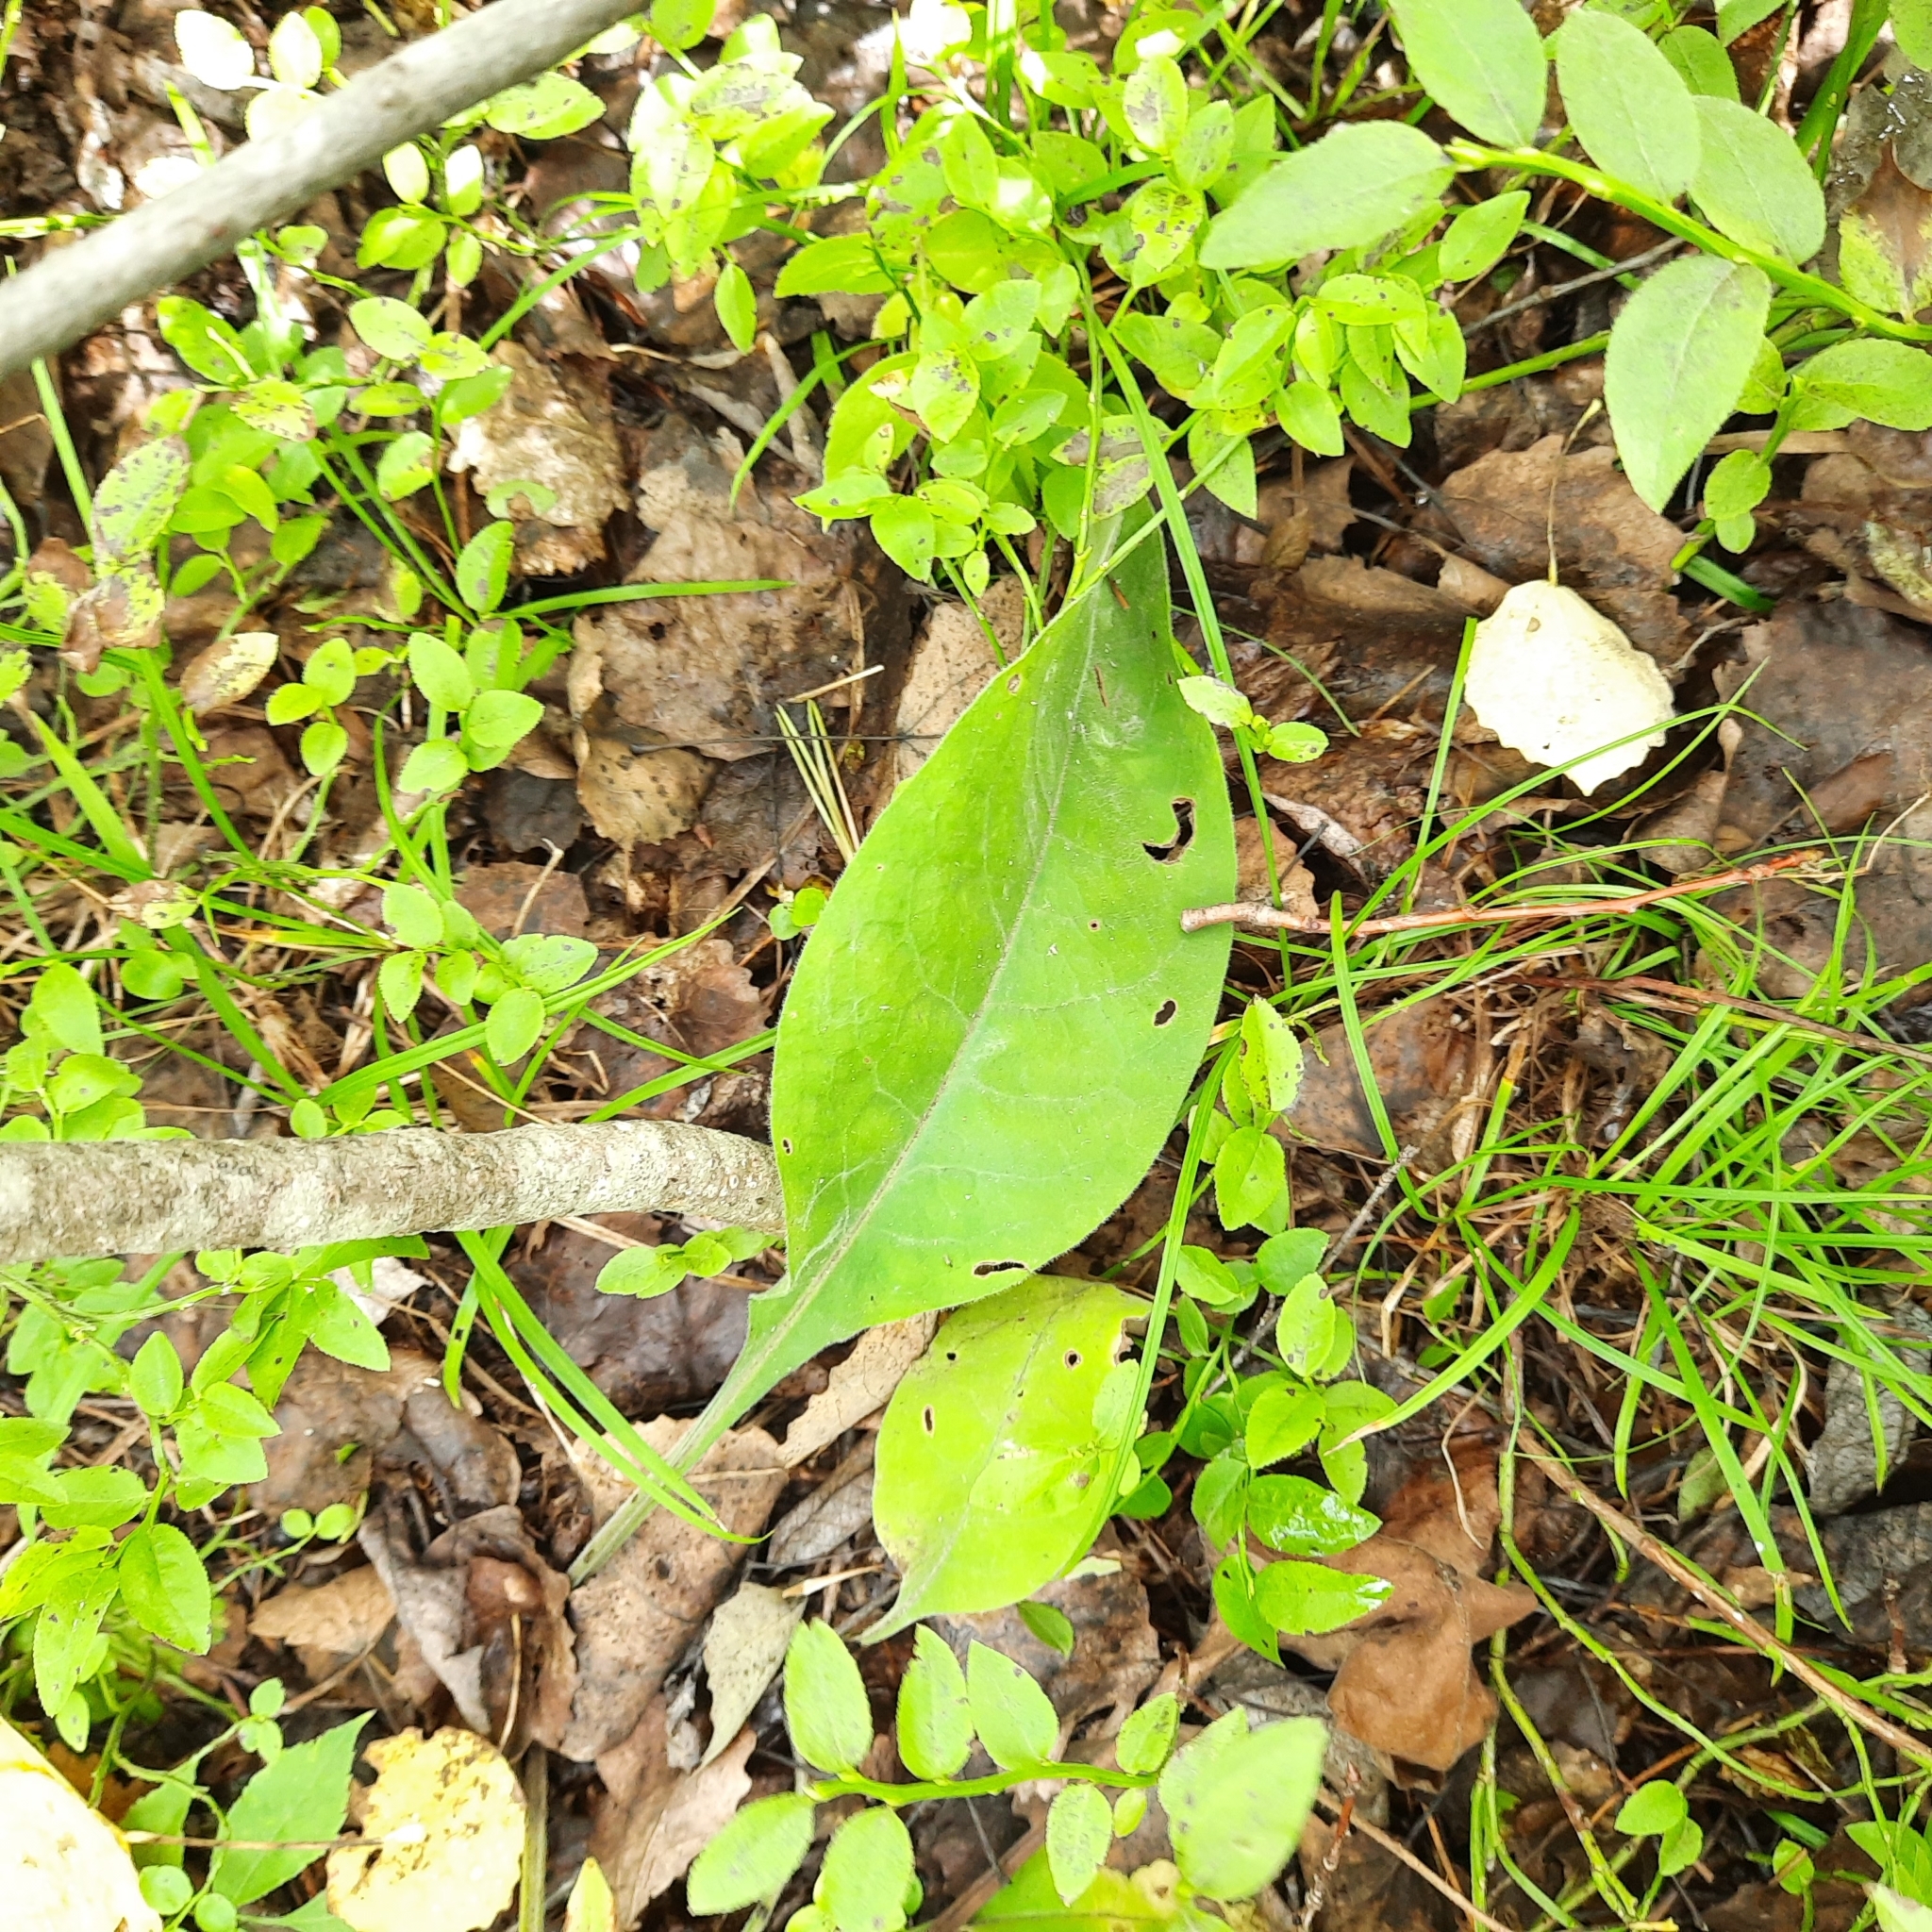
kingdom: Plantae
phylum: Tracheophyta
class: Magnoliopsida
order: Boraginales
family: Boraginaceae
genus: Pulmonaria
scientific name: Pulmonaria mollis
